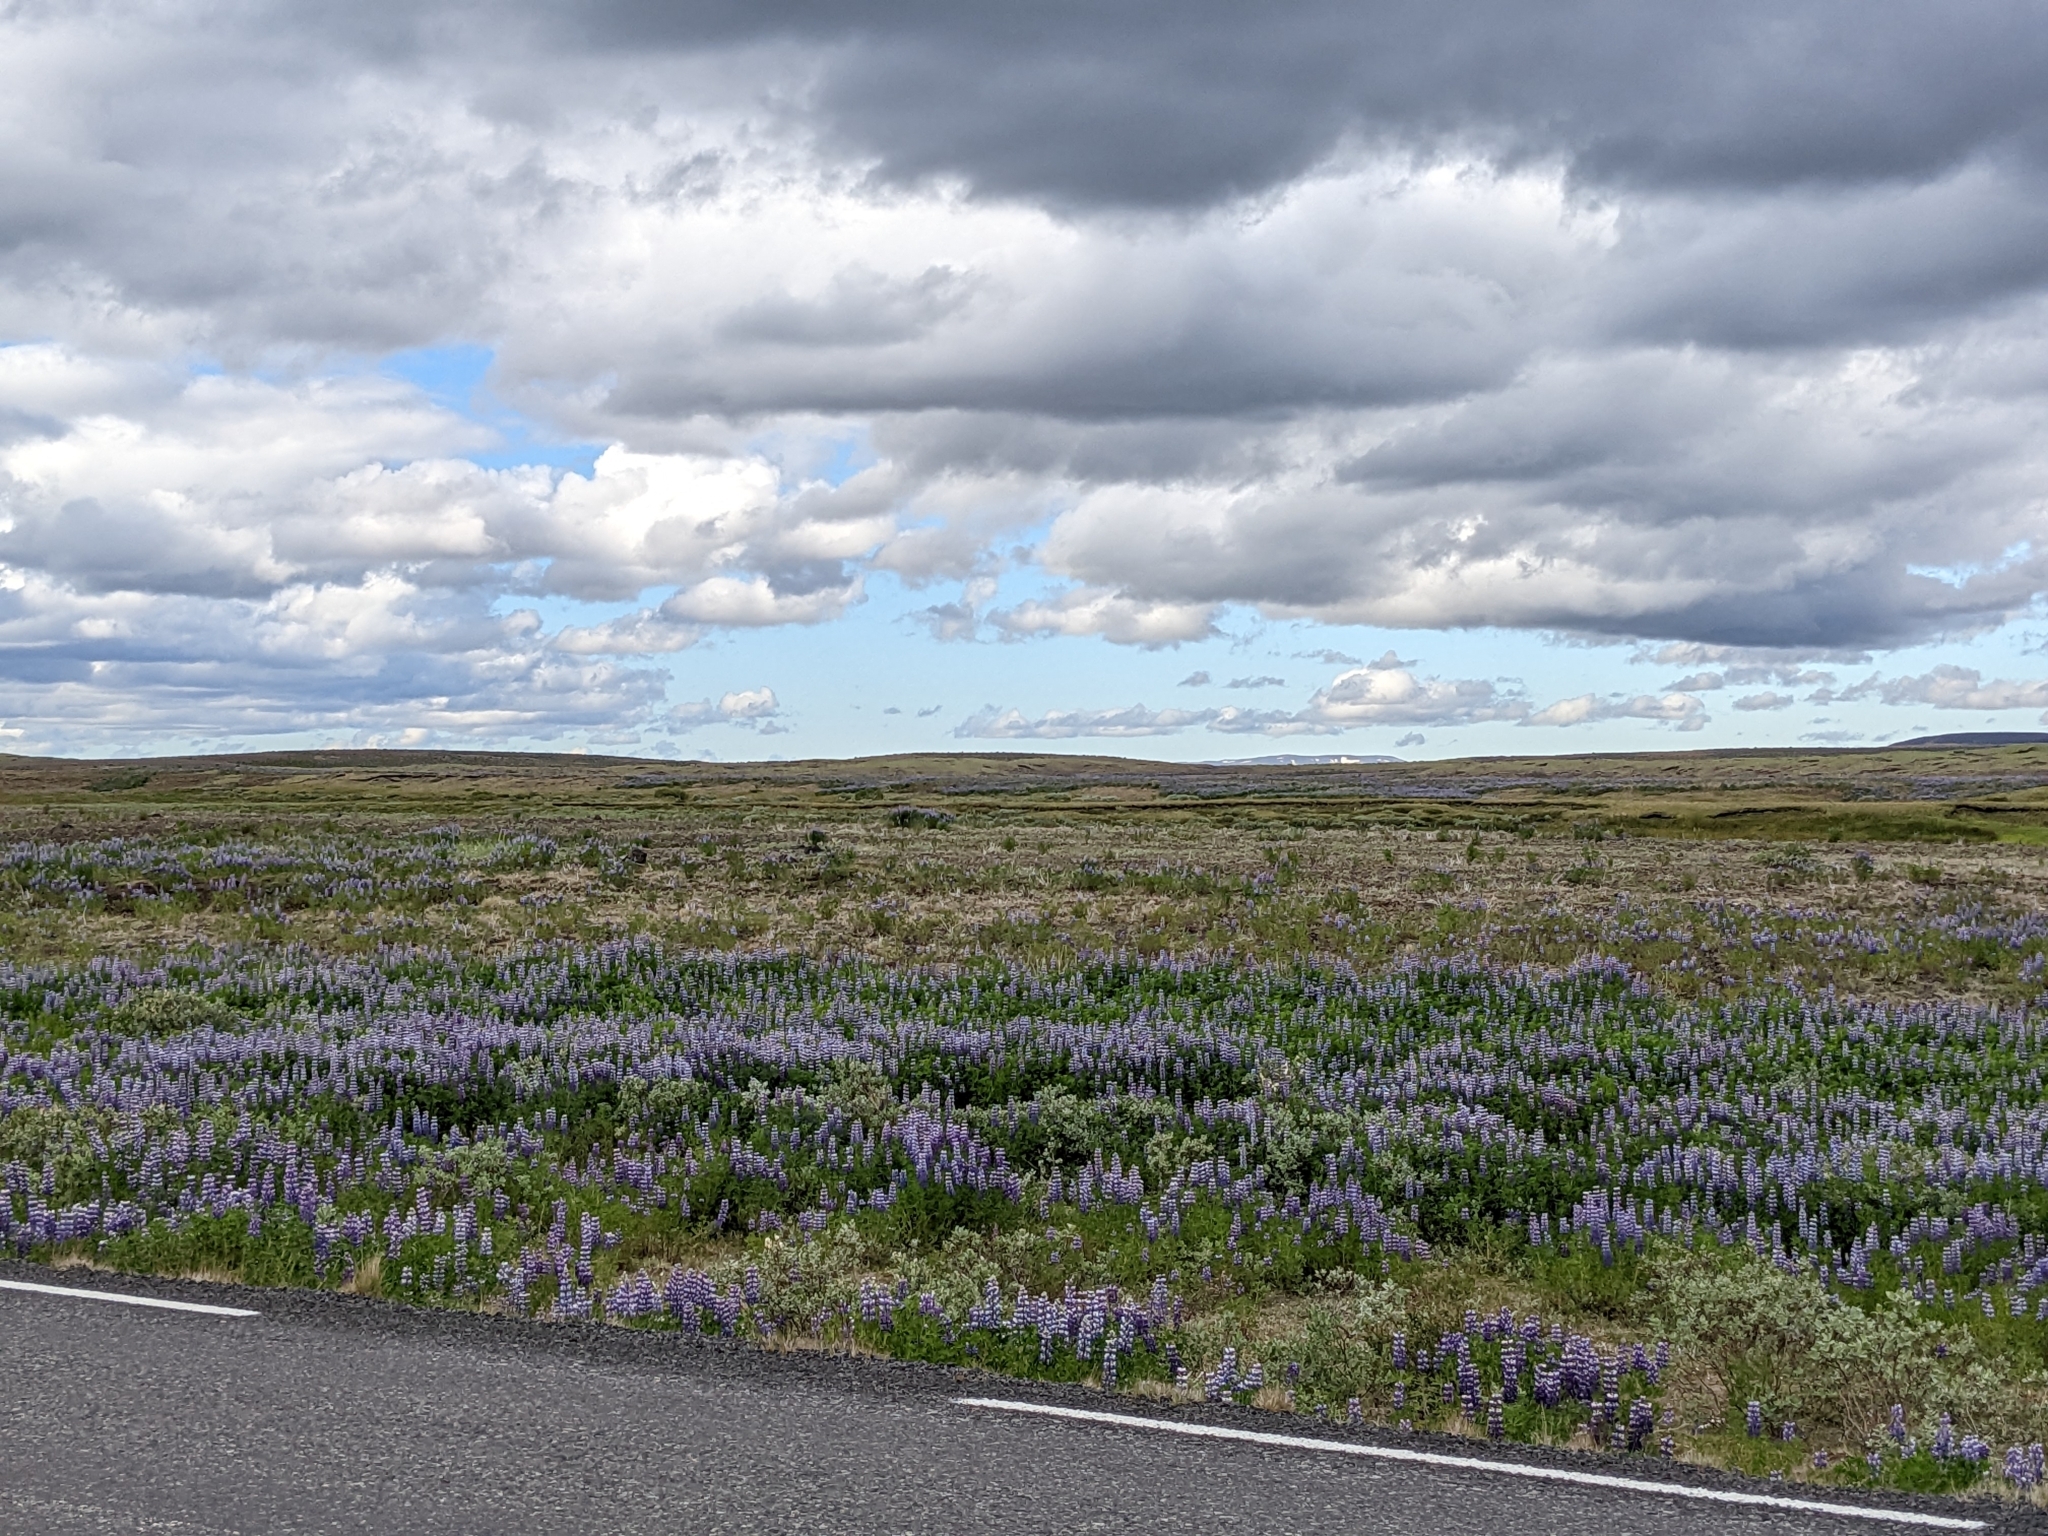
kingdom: Plantae
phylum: Tracheophyta
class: Magnoliopsida
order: Fabales
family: Fabaceae
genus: Lupinus
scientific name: Lupinus nootkatensis
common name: Nootka lupine
